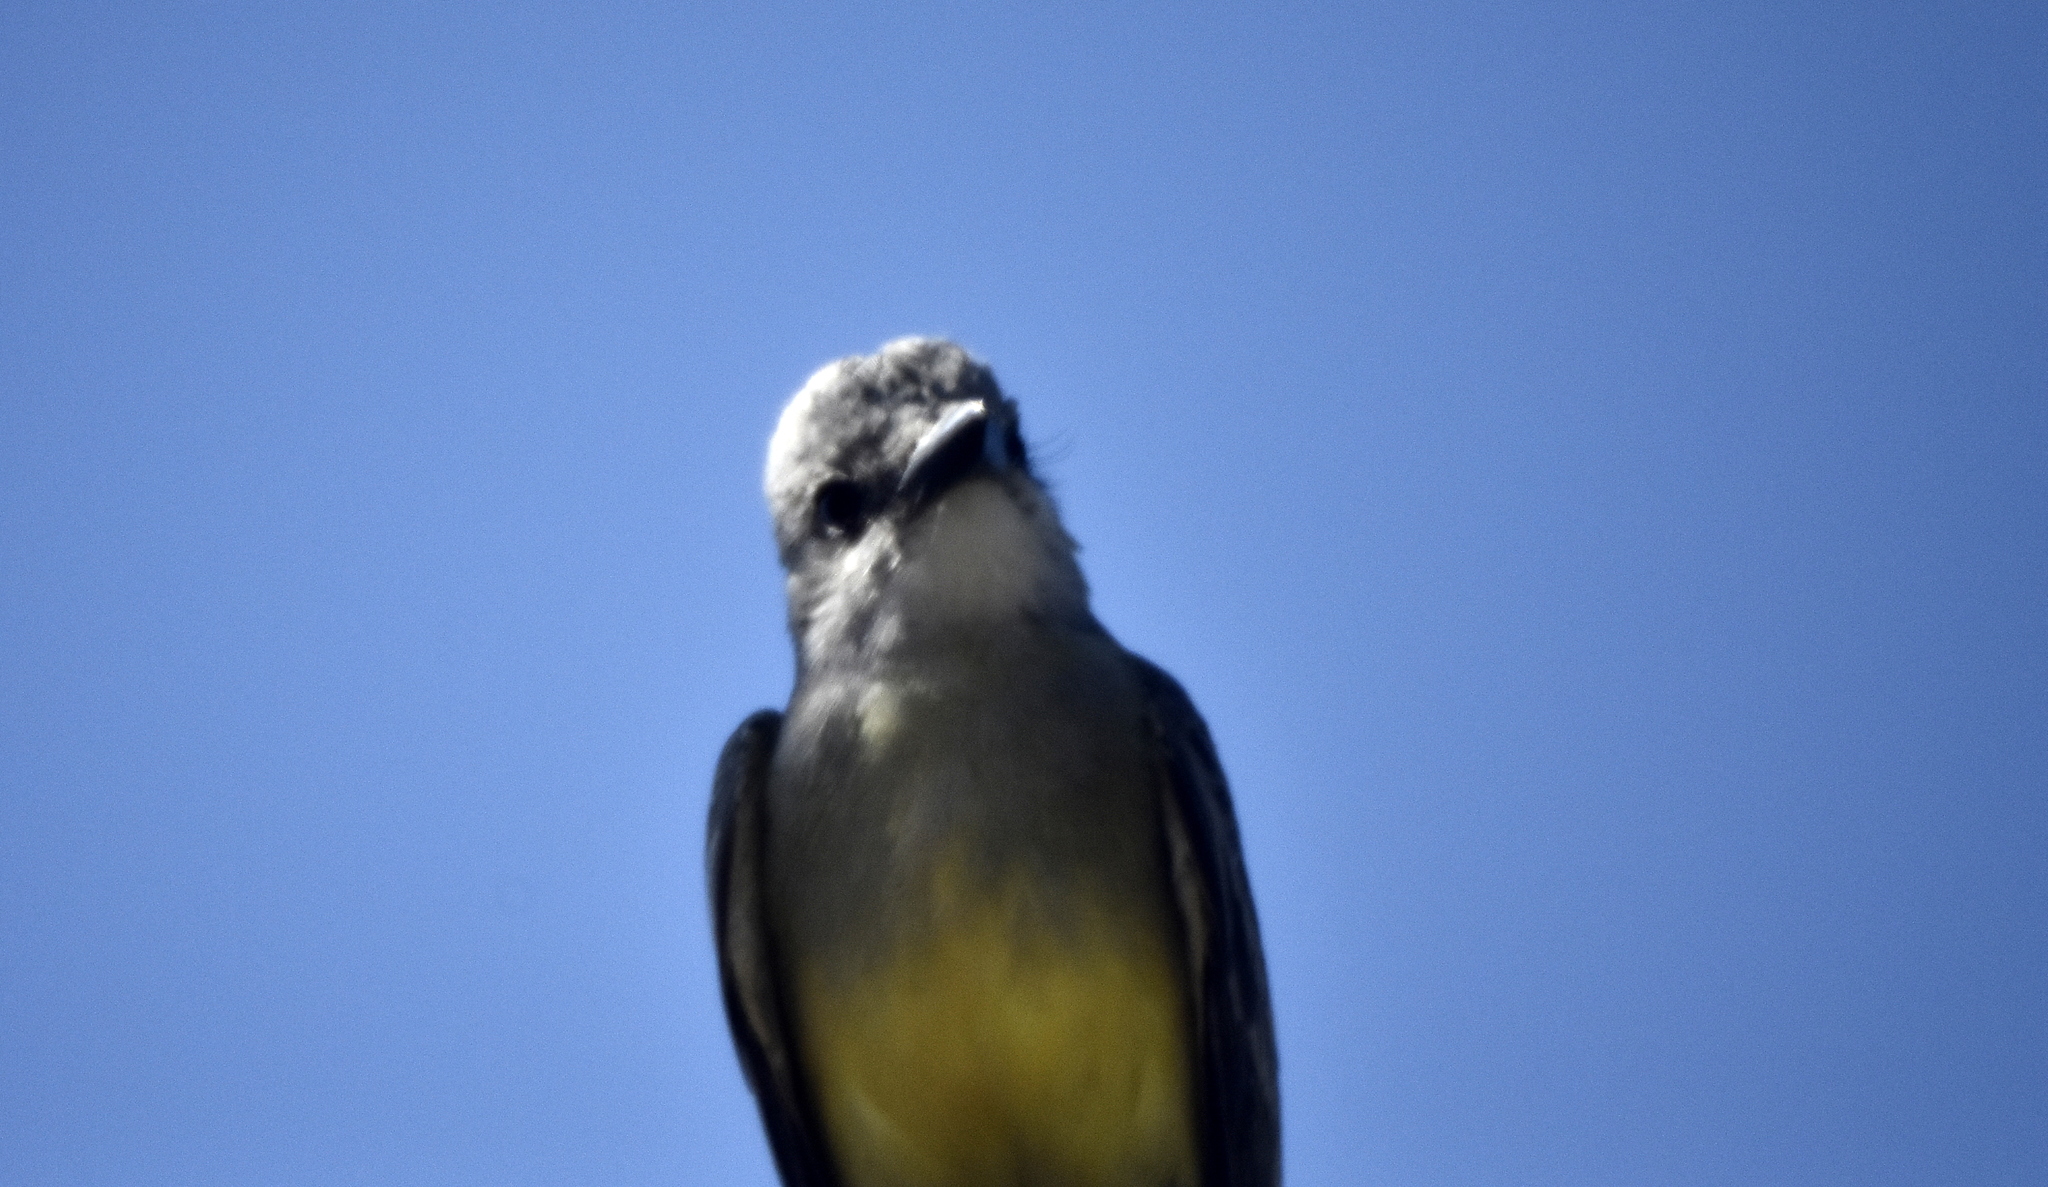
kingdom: Animalia
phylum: Chordata
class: Aves
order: Passeriformes
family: Tyrannidae
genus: Tyrannus
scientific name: Tyrannus vociferans
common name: Cassin's kingbird
